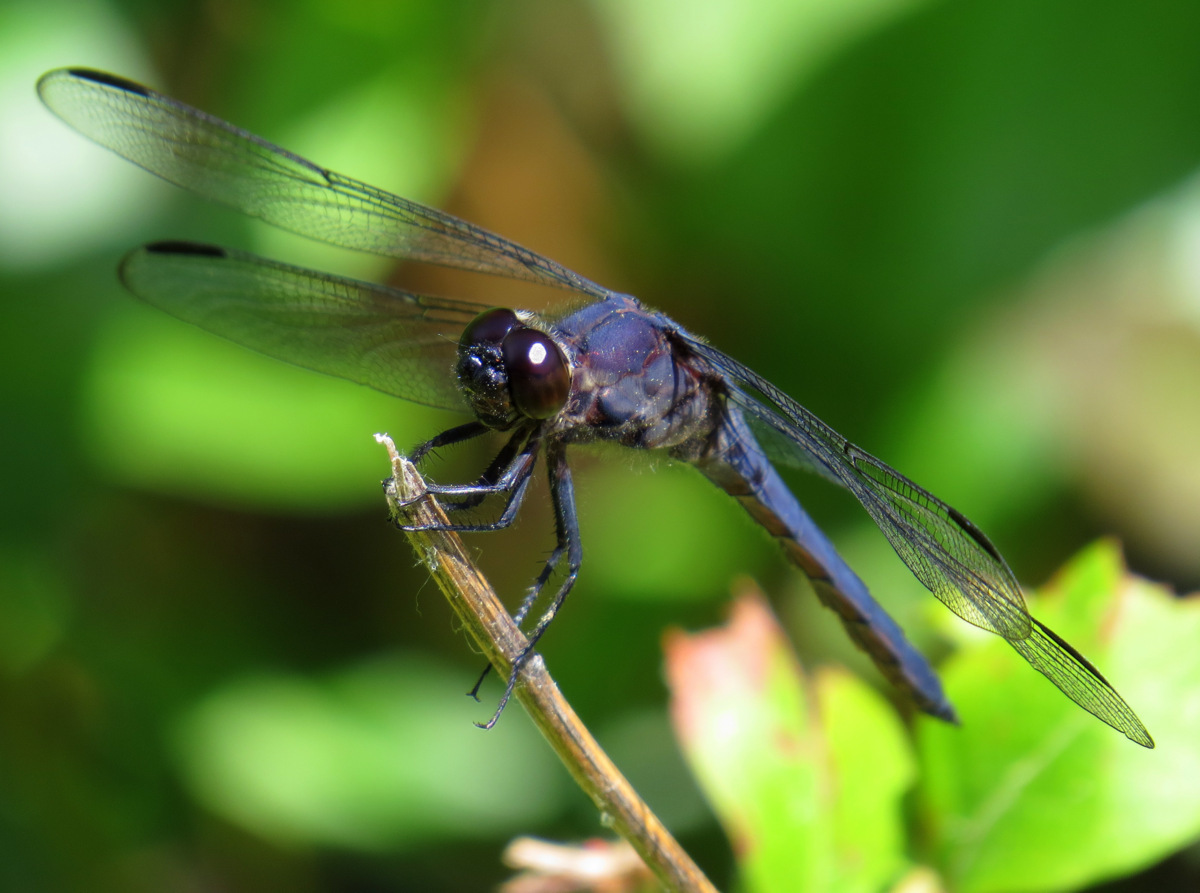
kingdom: Animalia
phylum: Arthropoda
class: Insecta
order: Odonata
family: Libellulidae
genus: Libellula
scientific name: Libellula incesta
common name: Slaty skimmer
